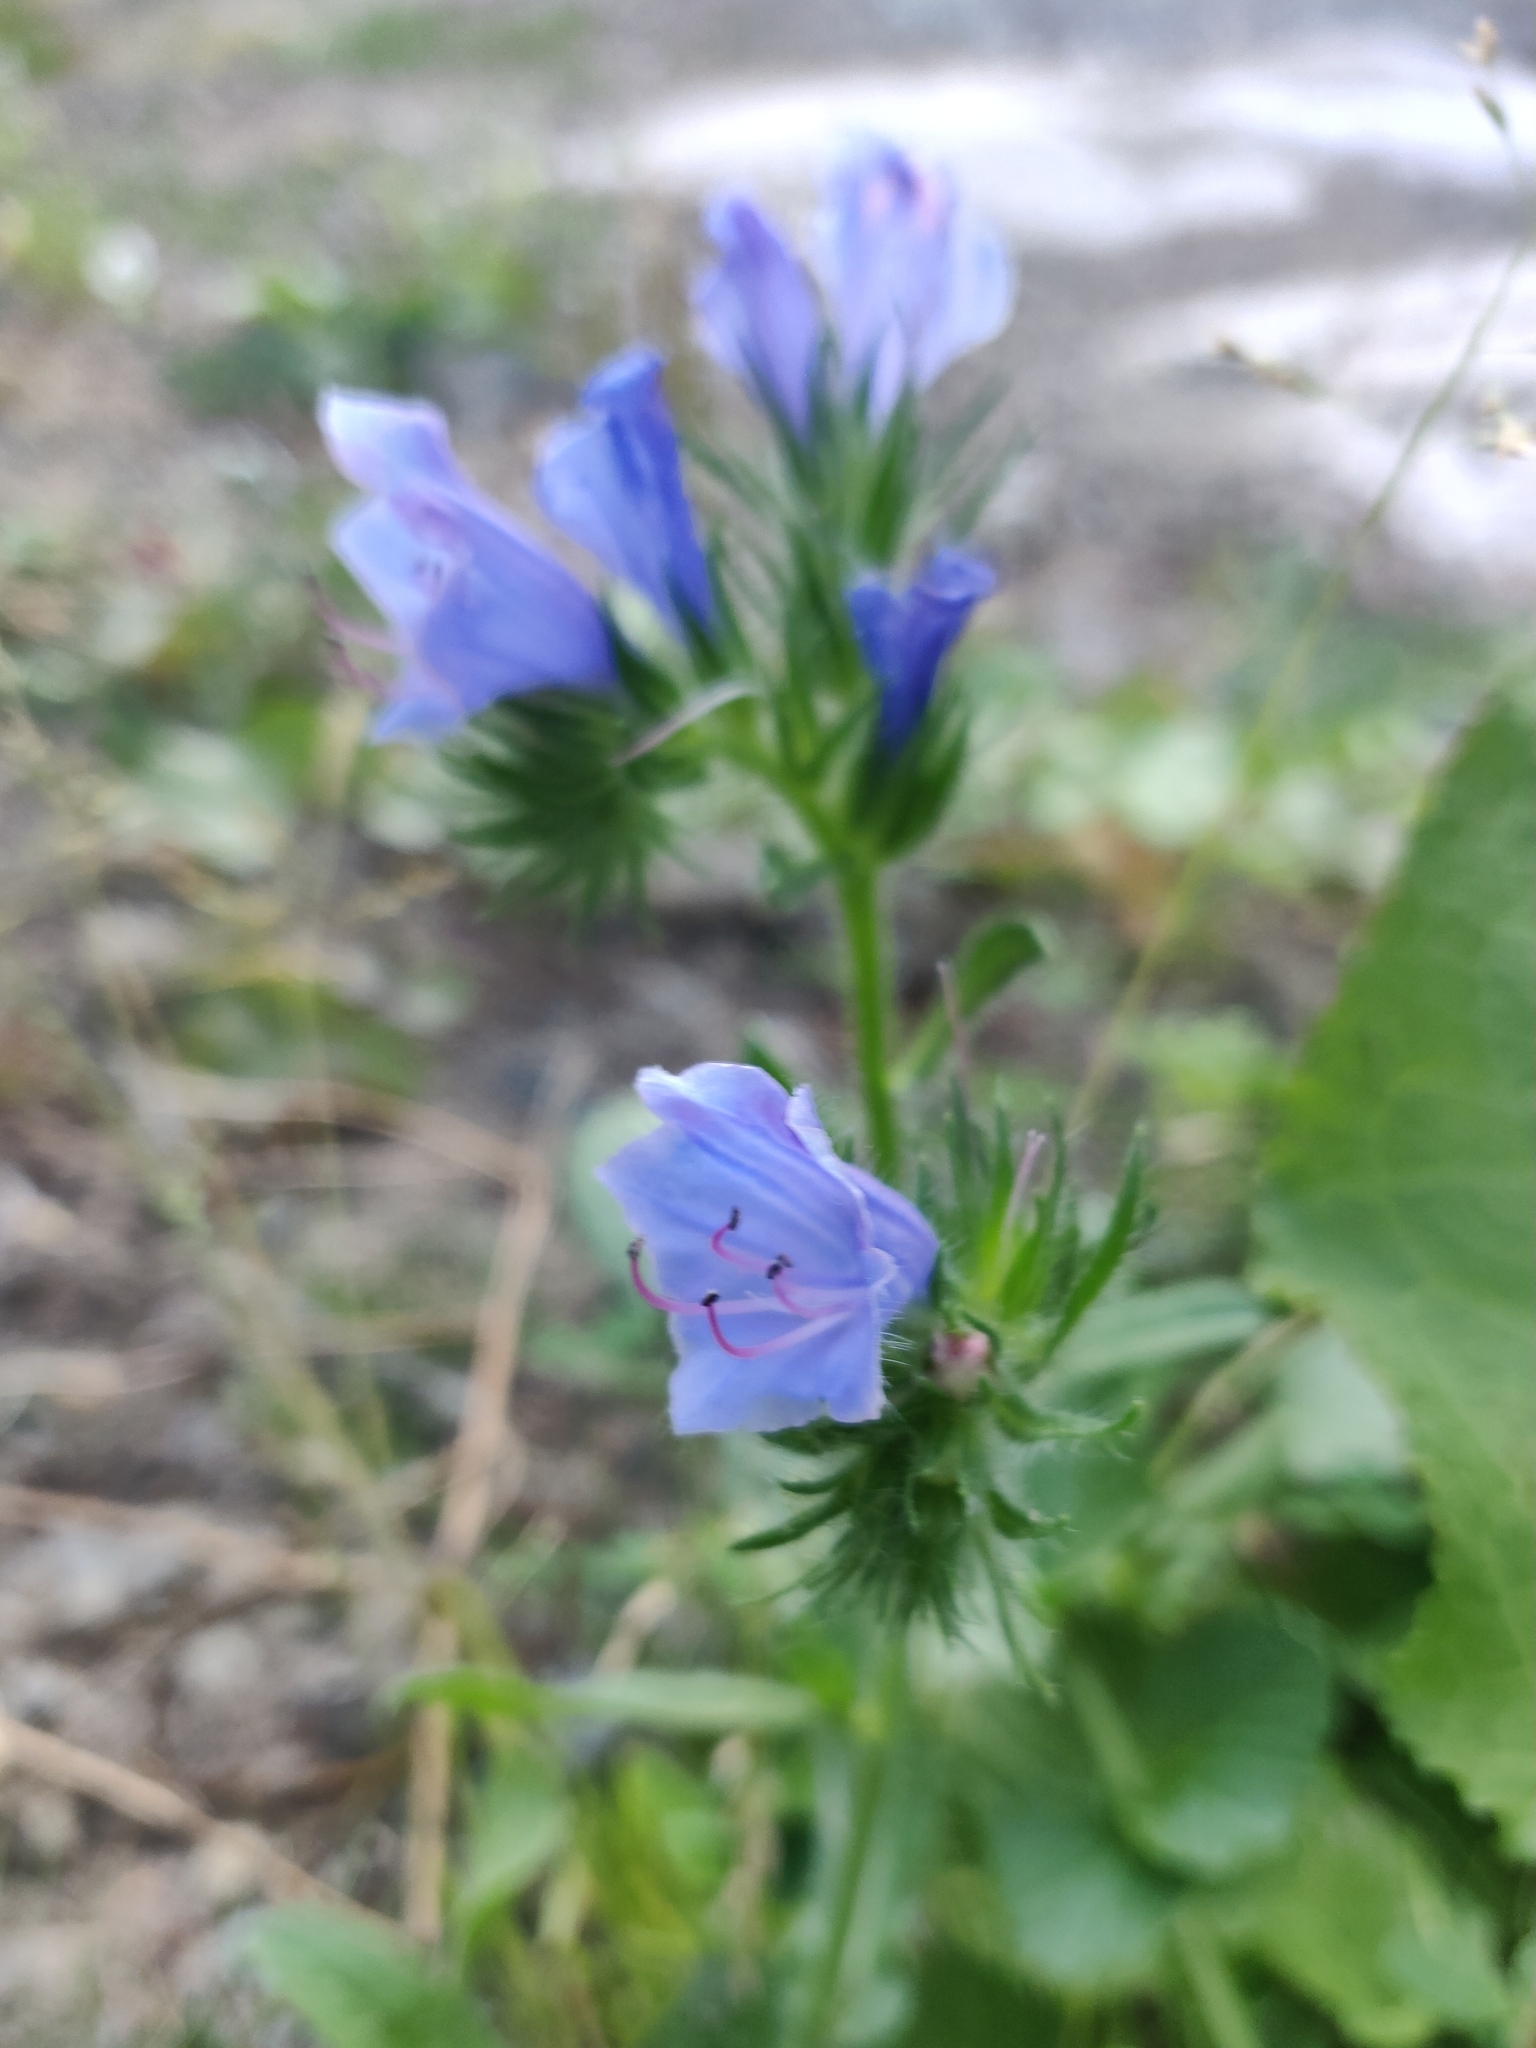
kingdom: Plantae
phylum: Tracheophyta
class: Magnoliopsida
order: Boraginales
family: Boraginaceae
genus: Echium
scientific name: Echium vulgare
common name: Common viper's bugloss
